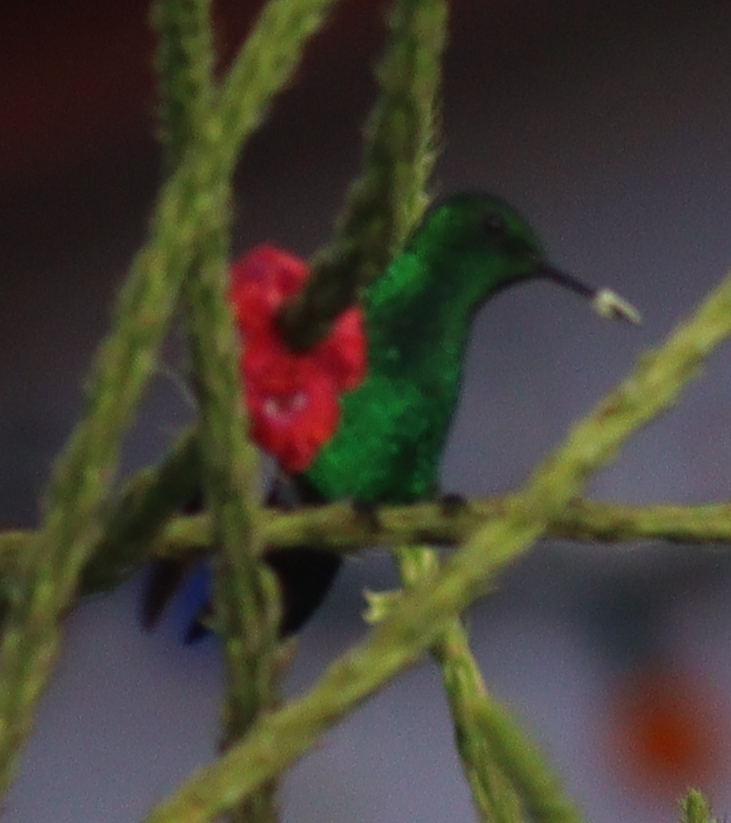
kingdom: Animalia
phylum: Chordata
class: Aves
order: Apodiformes
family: Trochilidae
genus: Saucerottia
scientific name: Saucerottia hoffmanni
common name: Blue-vented hummingbird
